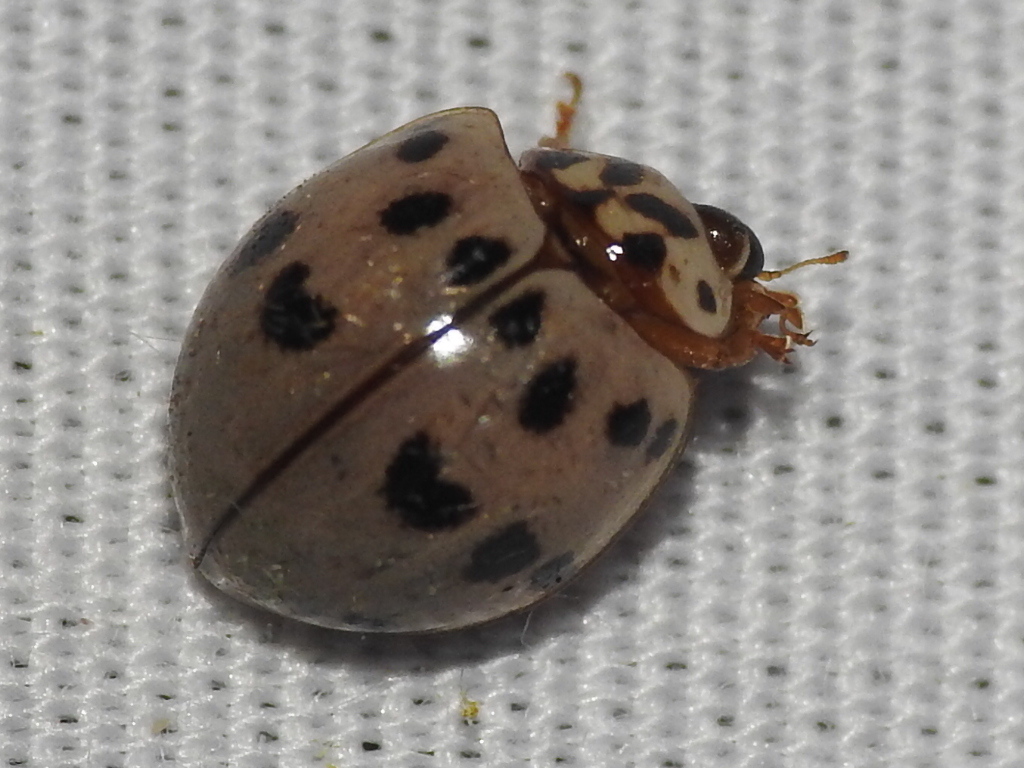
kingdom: Animalia
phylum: Arthropoda
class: Insecta
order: Coleoptera
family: Coccinellidae
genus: Olla
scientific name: Olla v-nigrum
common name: Ashy gray lady beetle
